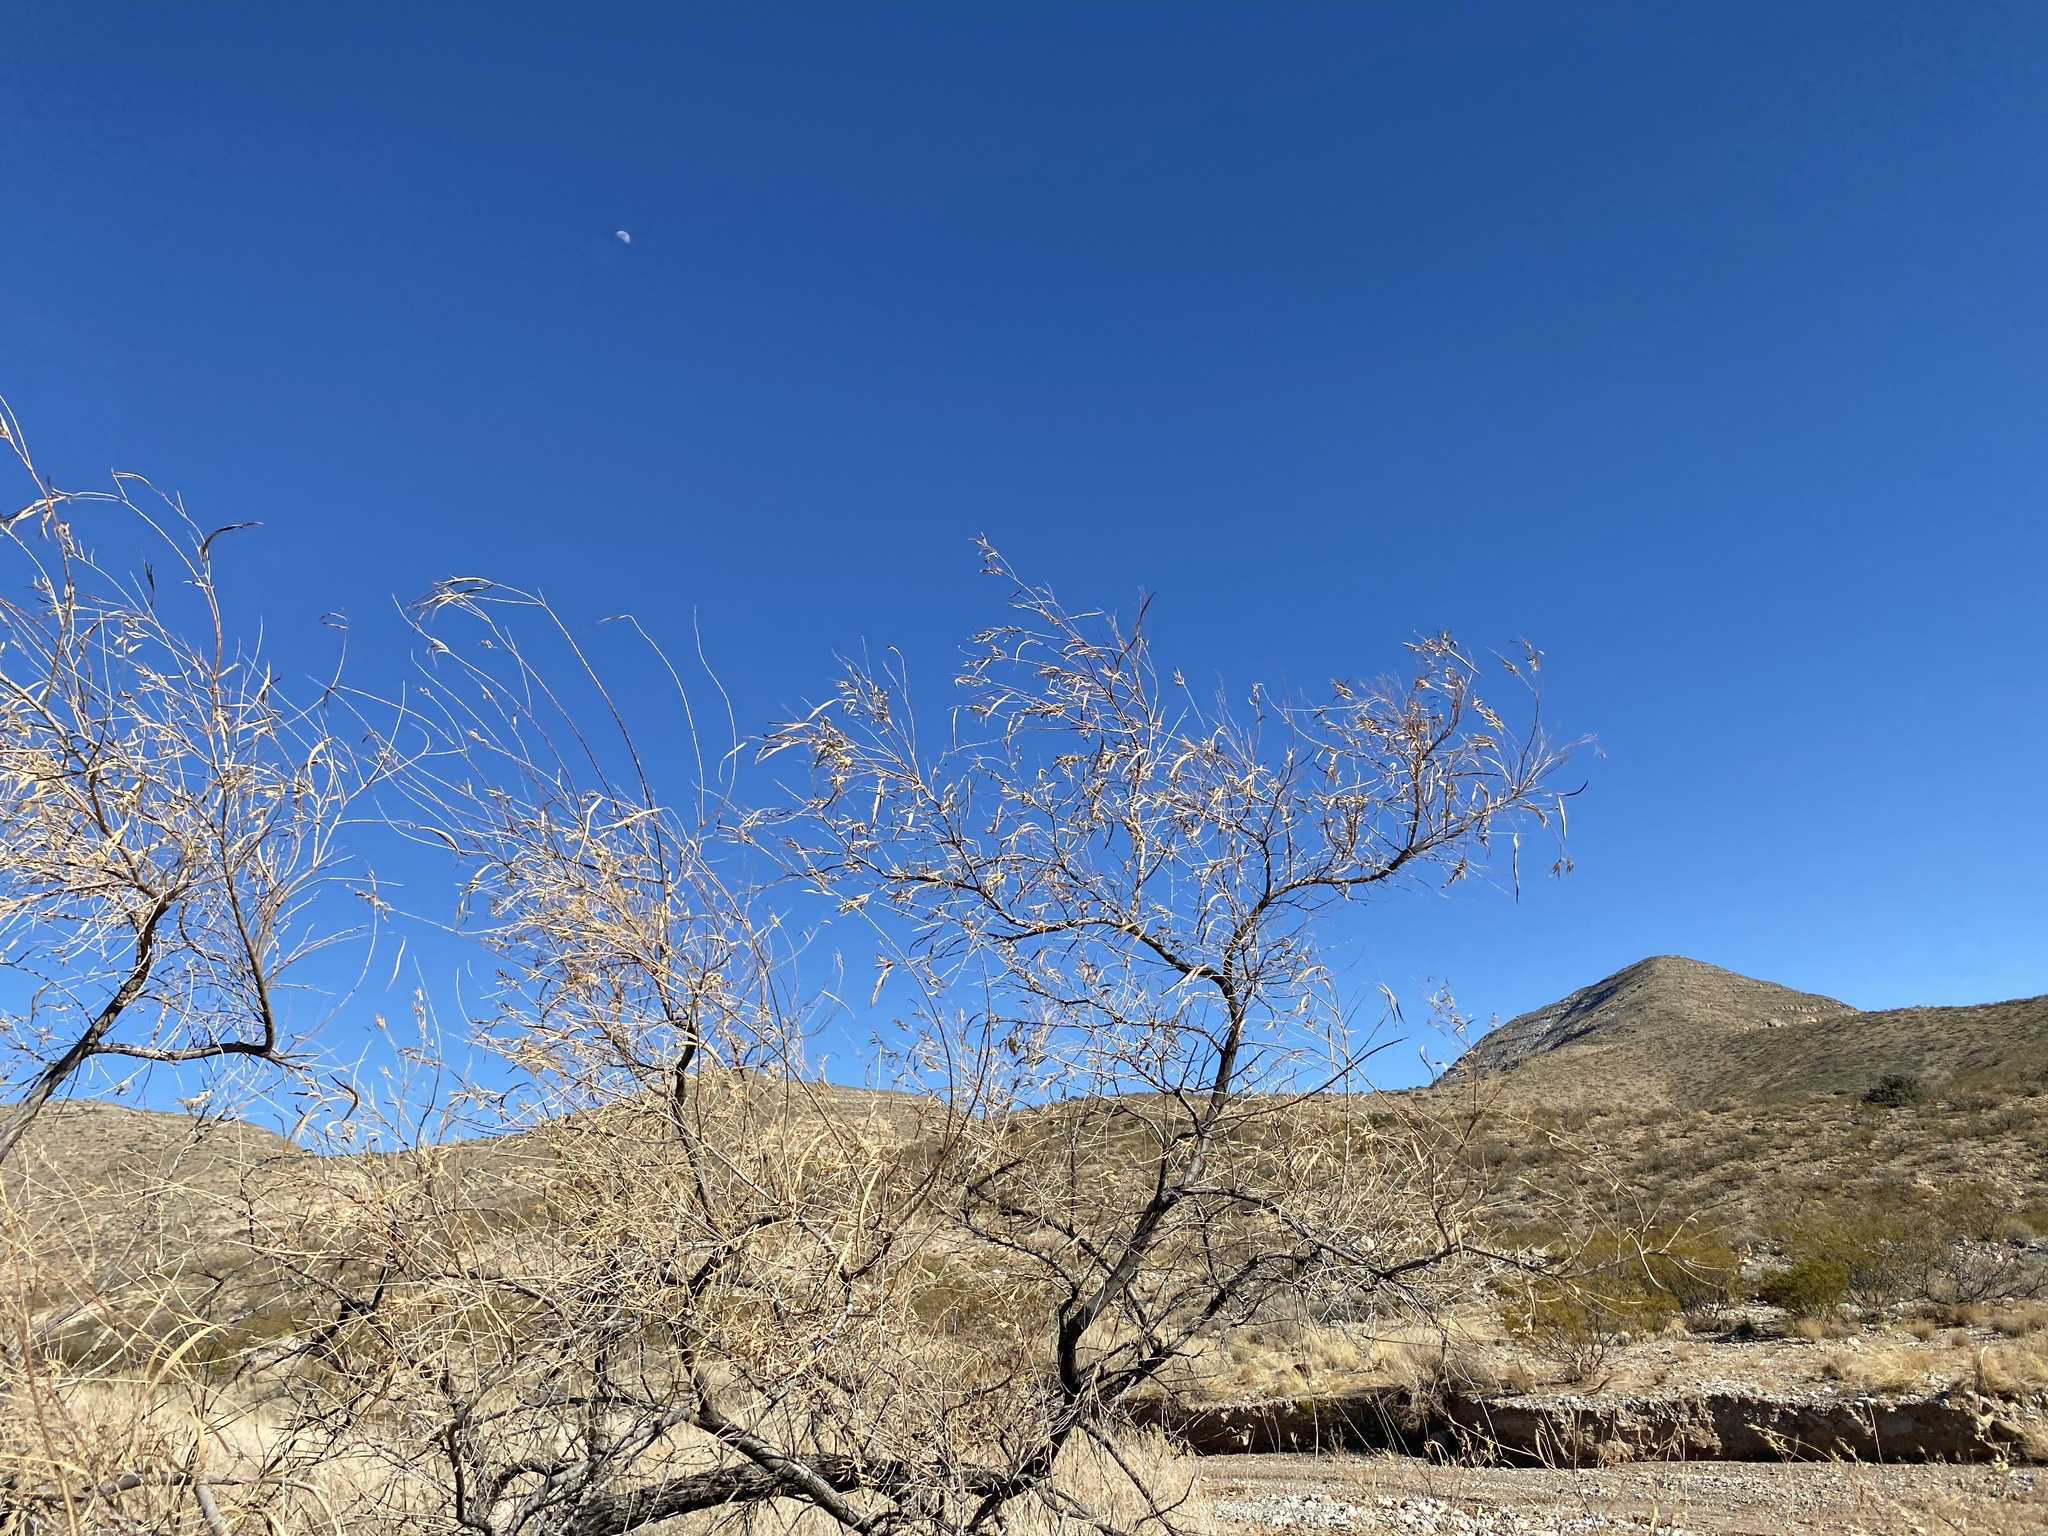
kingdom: Plantae
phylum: Tracheophyta
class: Magnoliopsida
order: Lamiales
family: Bignoniaceae
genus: Chilopsis
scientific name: Chilopsis linearis
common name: Desert-willow
